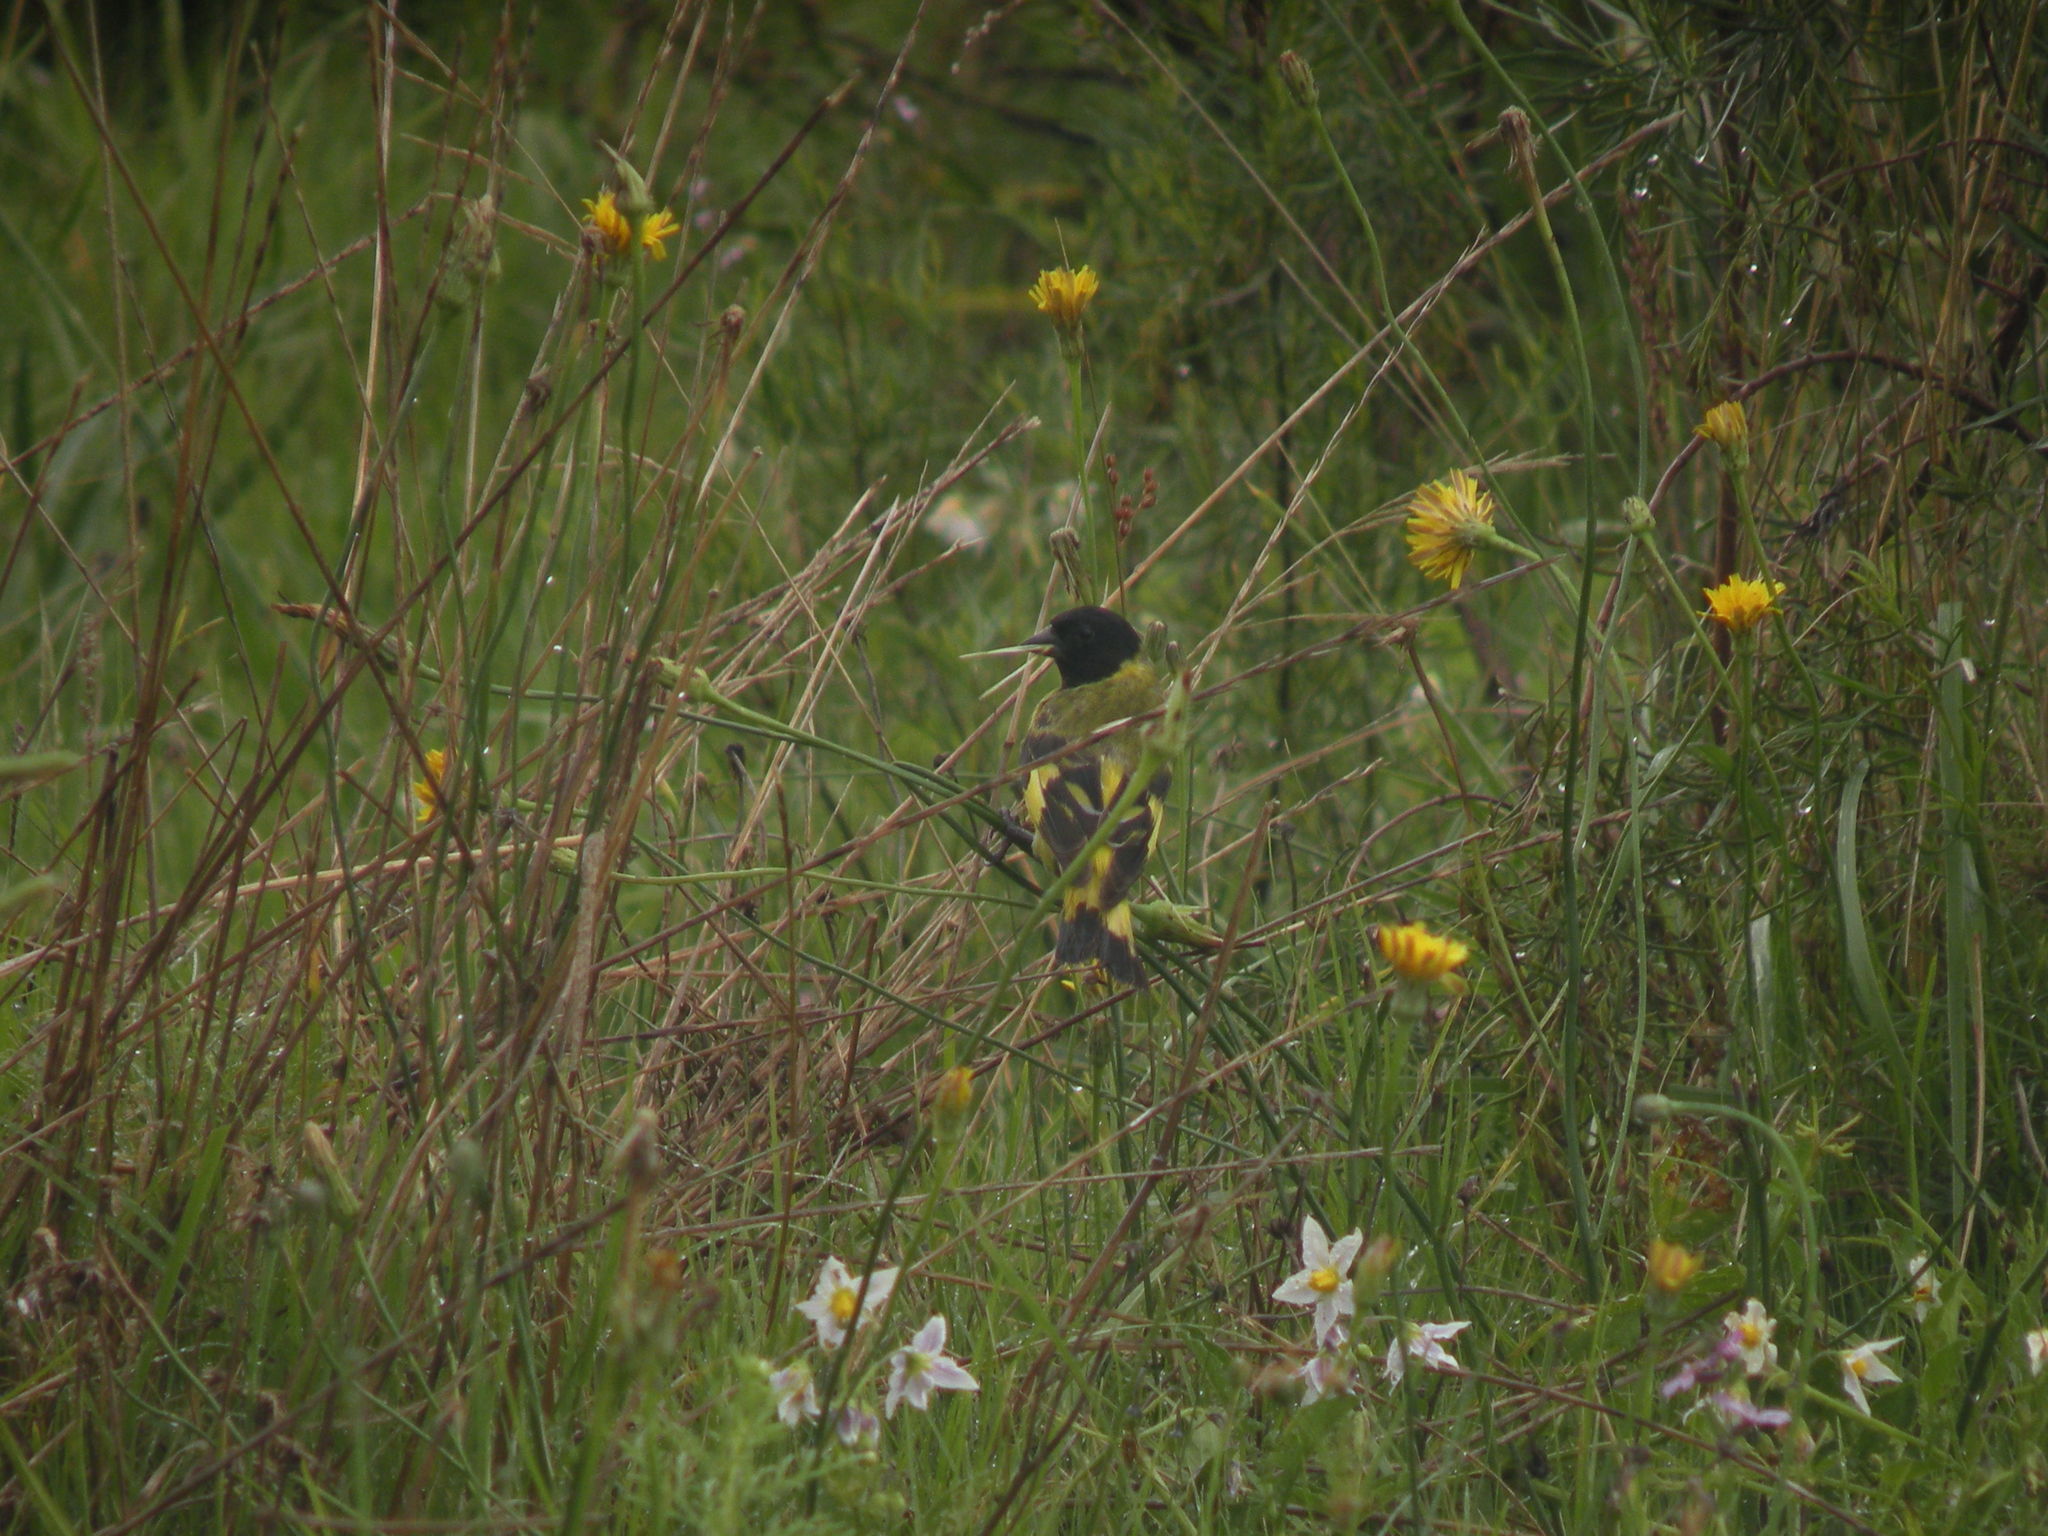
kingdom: Animalia
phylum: Chordata
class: Aves
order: Passeriformes
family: Fringillidae
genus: Spinus
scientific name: Spinus magellanicus
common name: Hooded siskin
